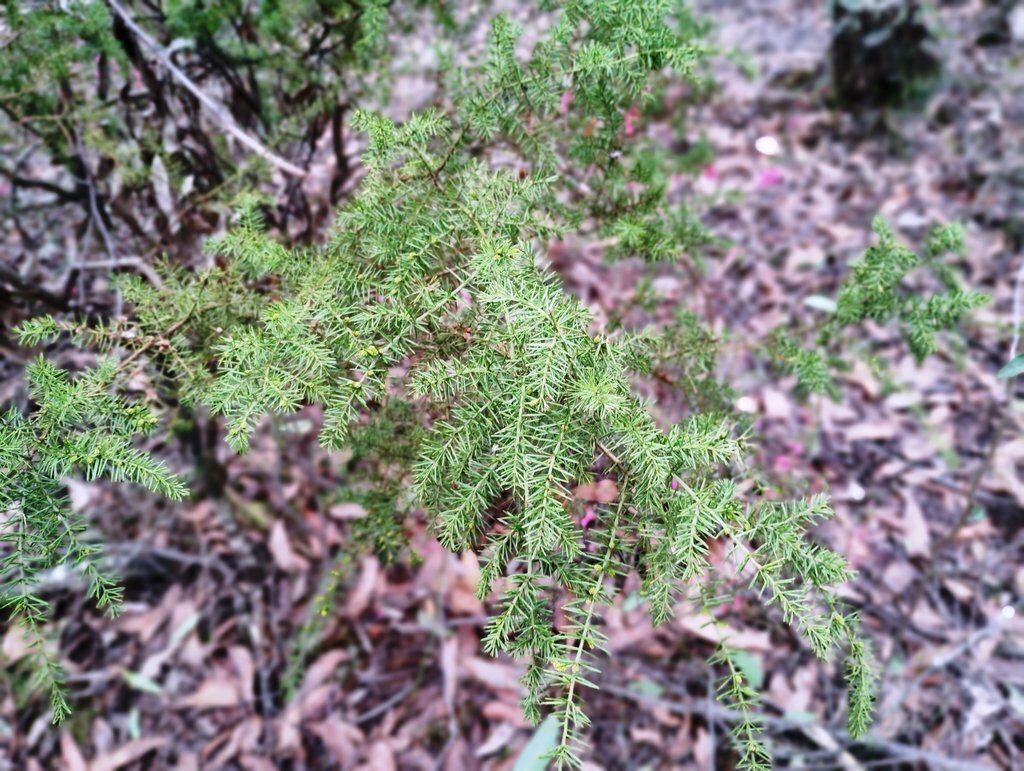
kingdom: Plantae
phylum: Tracheophyta
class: Magnoliopsida
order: Fabales
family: Fabaceae
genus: Acacia
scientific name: Acacia verticillata
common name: Prickly moses
